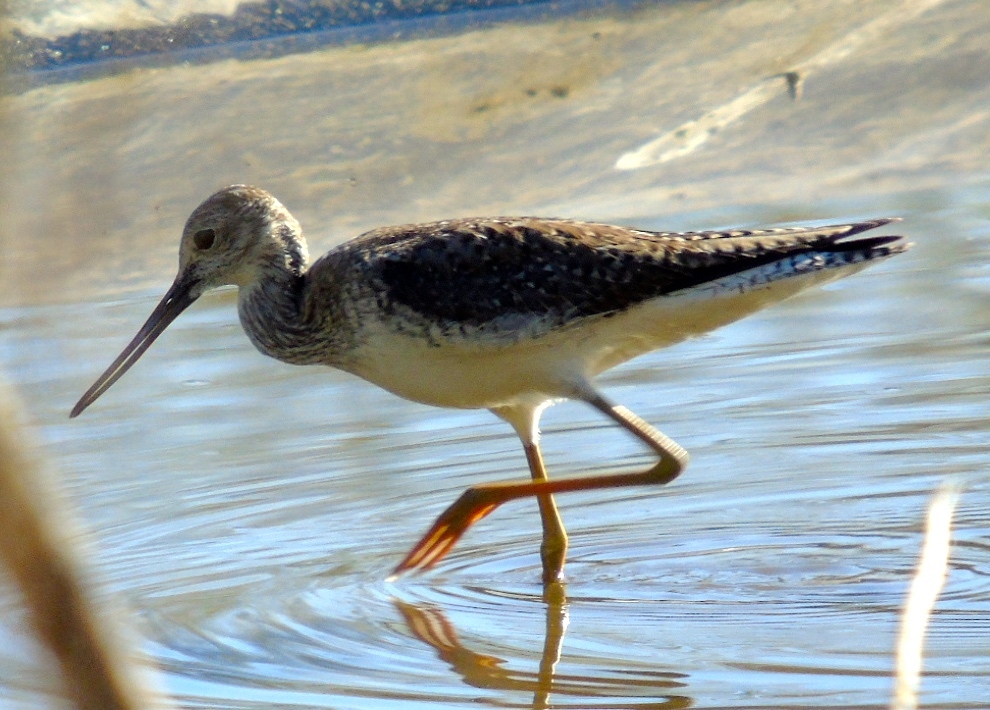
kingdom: Animalia
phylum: Chordata
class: Aves
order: Charadriiformes
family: Scolopacidae
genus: Tringa
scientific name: Tringa melanoleuca
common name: Greater yellowlegs
